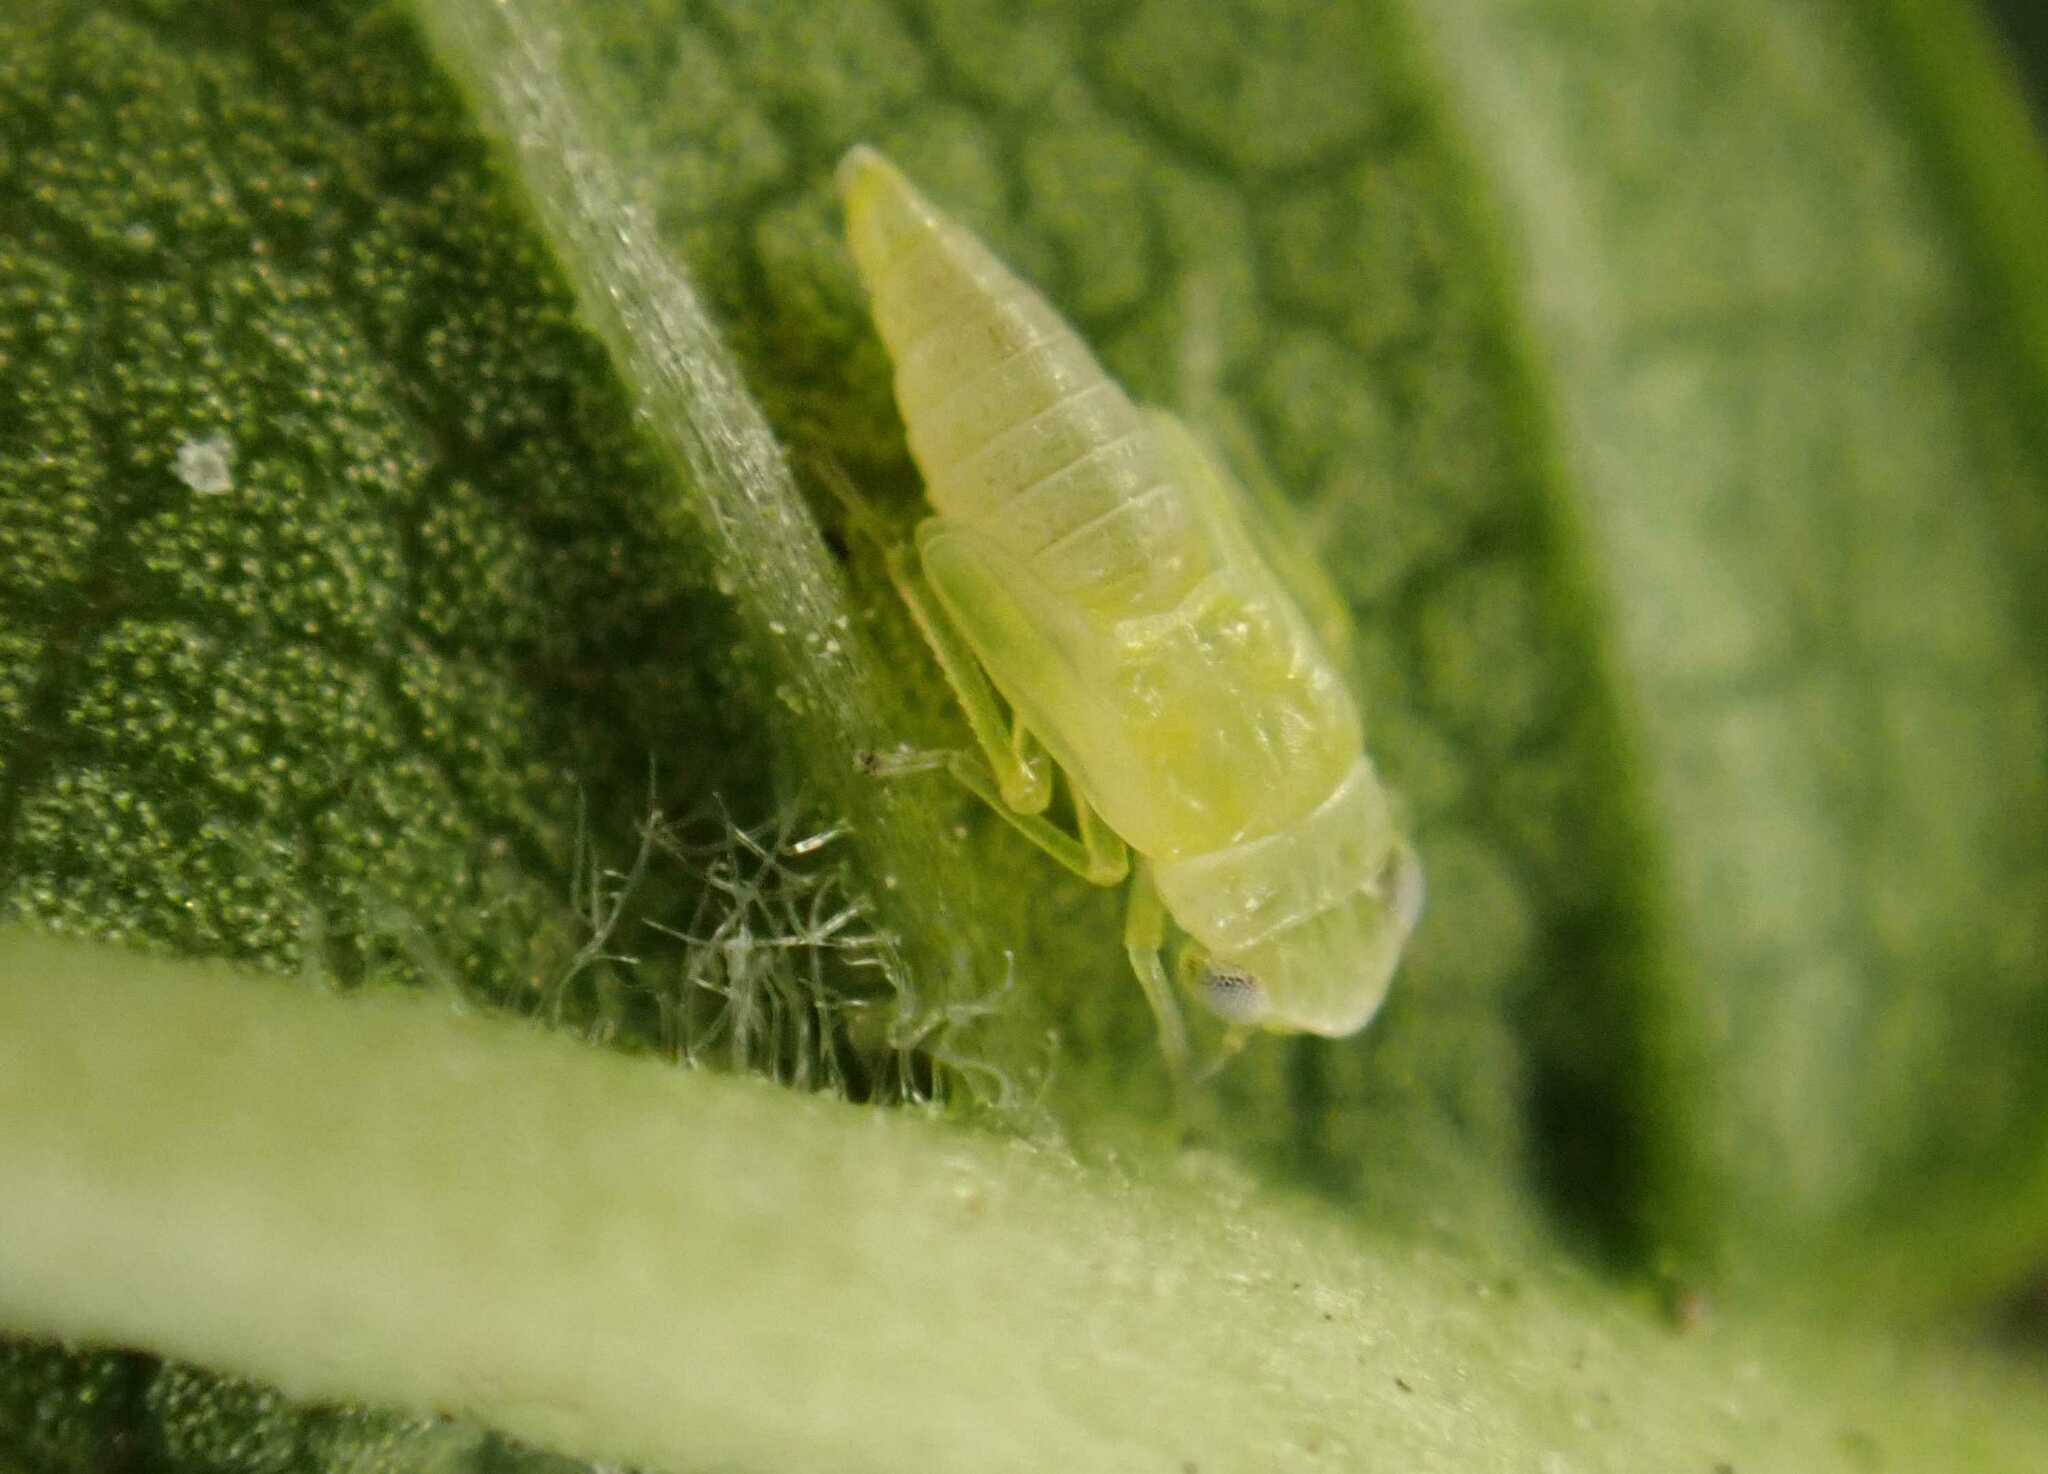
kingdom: Animalia
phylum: Arthropoda
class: Insecta
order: Hemiptera
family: Cicadellidae
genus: Tautoneura
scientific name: Tautoneura polymitusa
